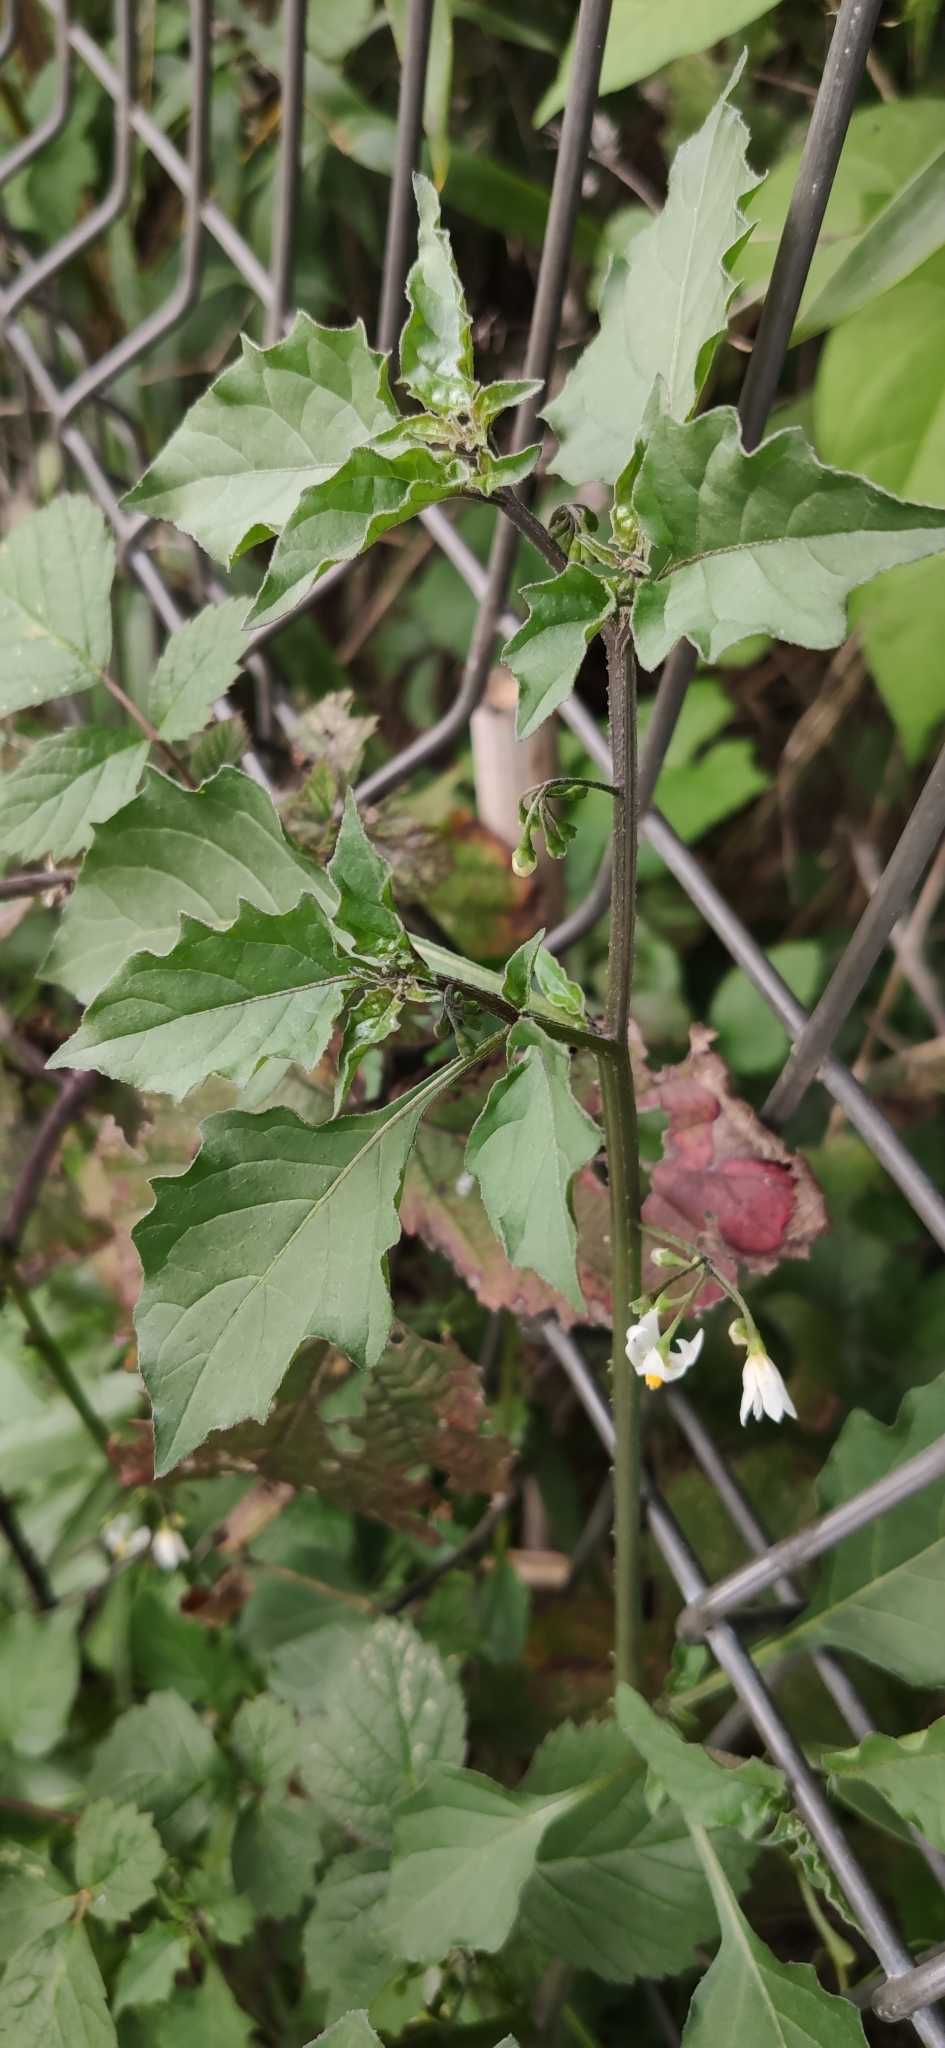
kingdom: Plantae
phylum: Tracheophyta
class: Magnoliopsida
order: Solanales
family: Solanaceae
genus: Solanum
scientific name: Solanum nigrum
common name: Black nightshade
